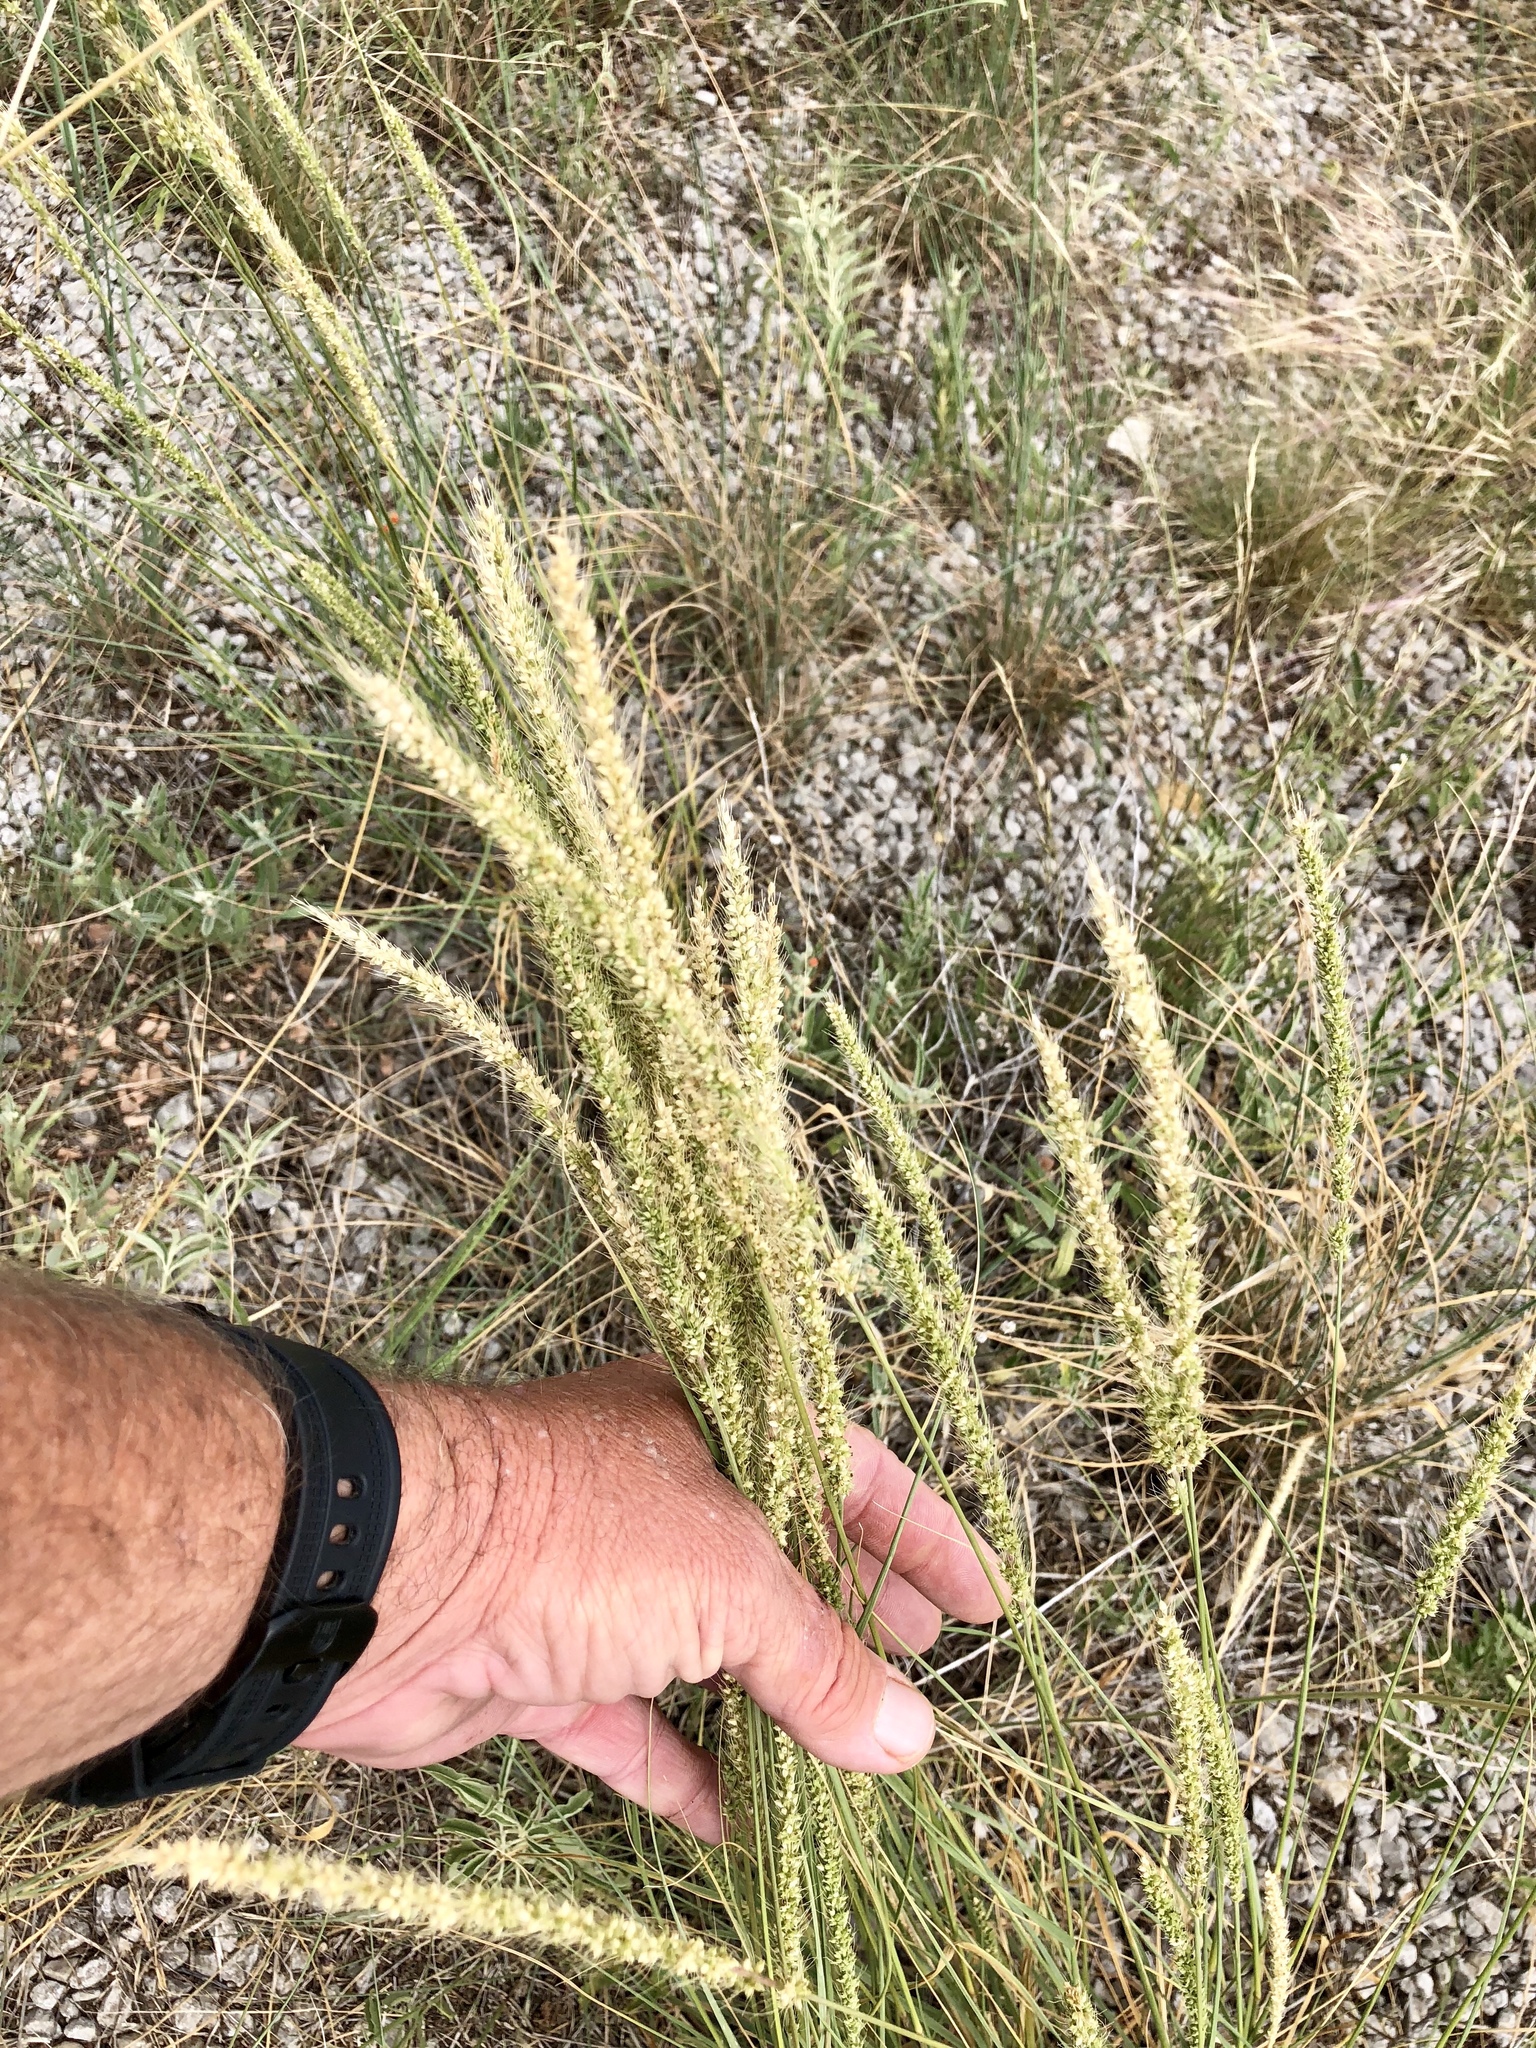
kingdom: Plantae
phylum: Tracheophyta
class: Liliopsida
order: Poales
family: Poaceae
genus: Setaria
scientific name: Setaria leucopila
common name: Plains bristle grass
